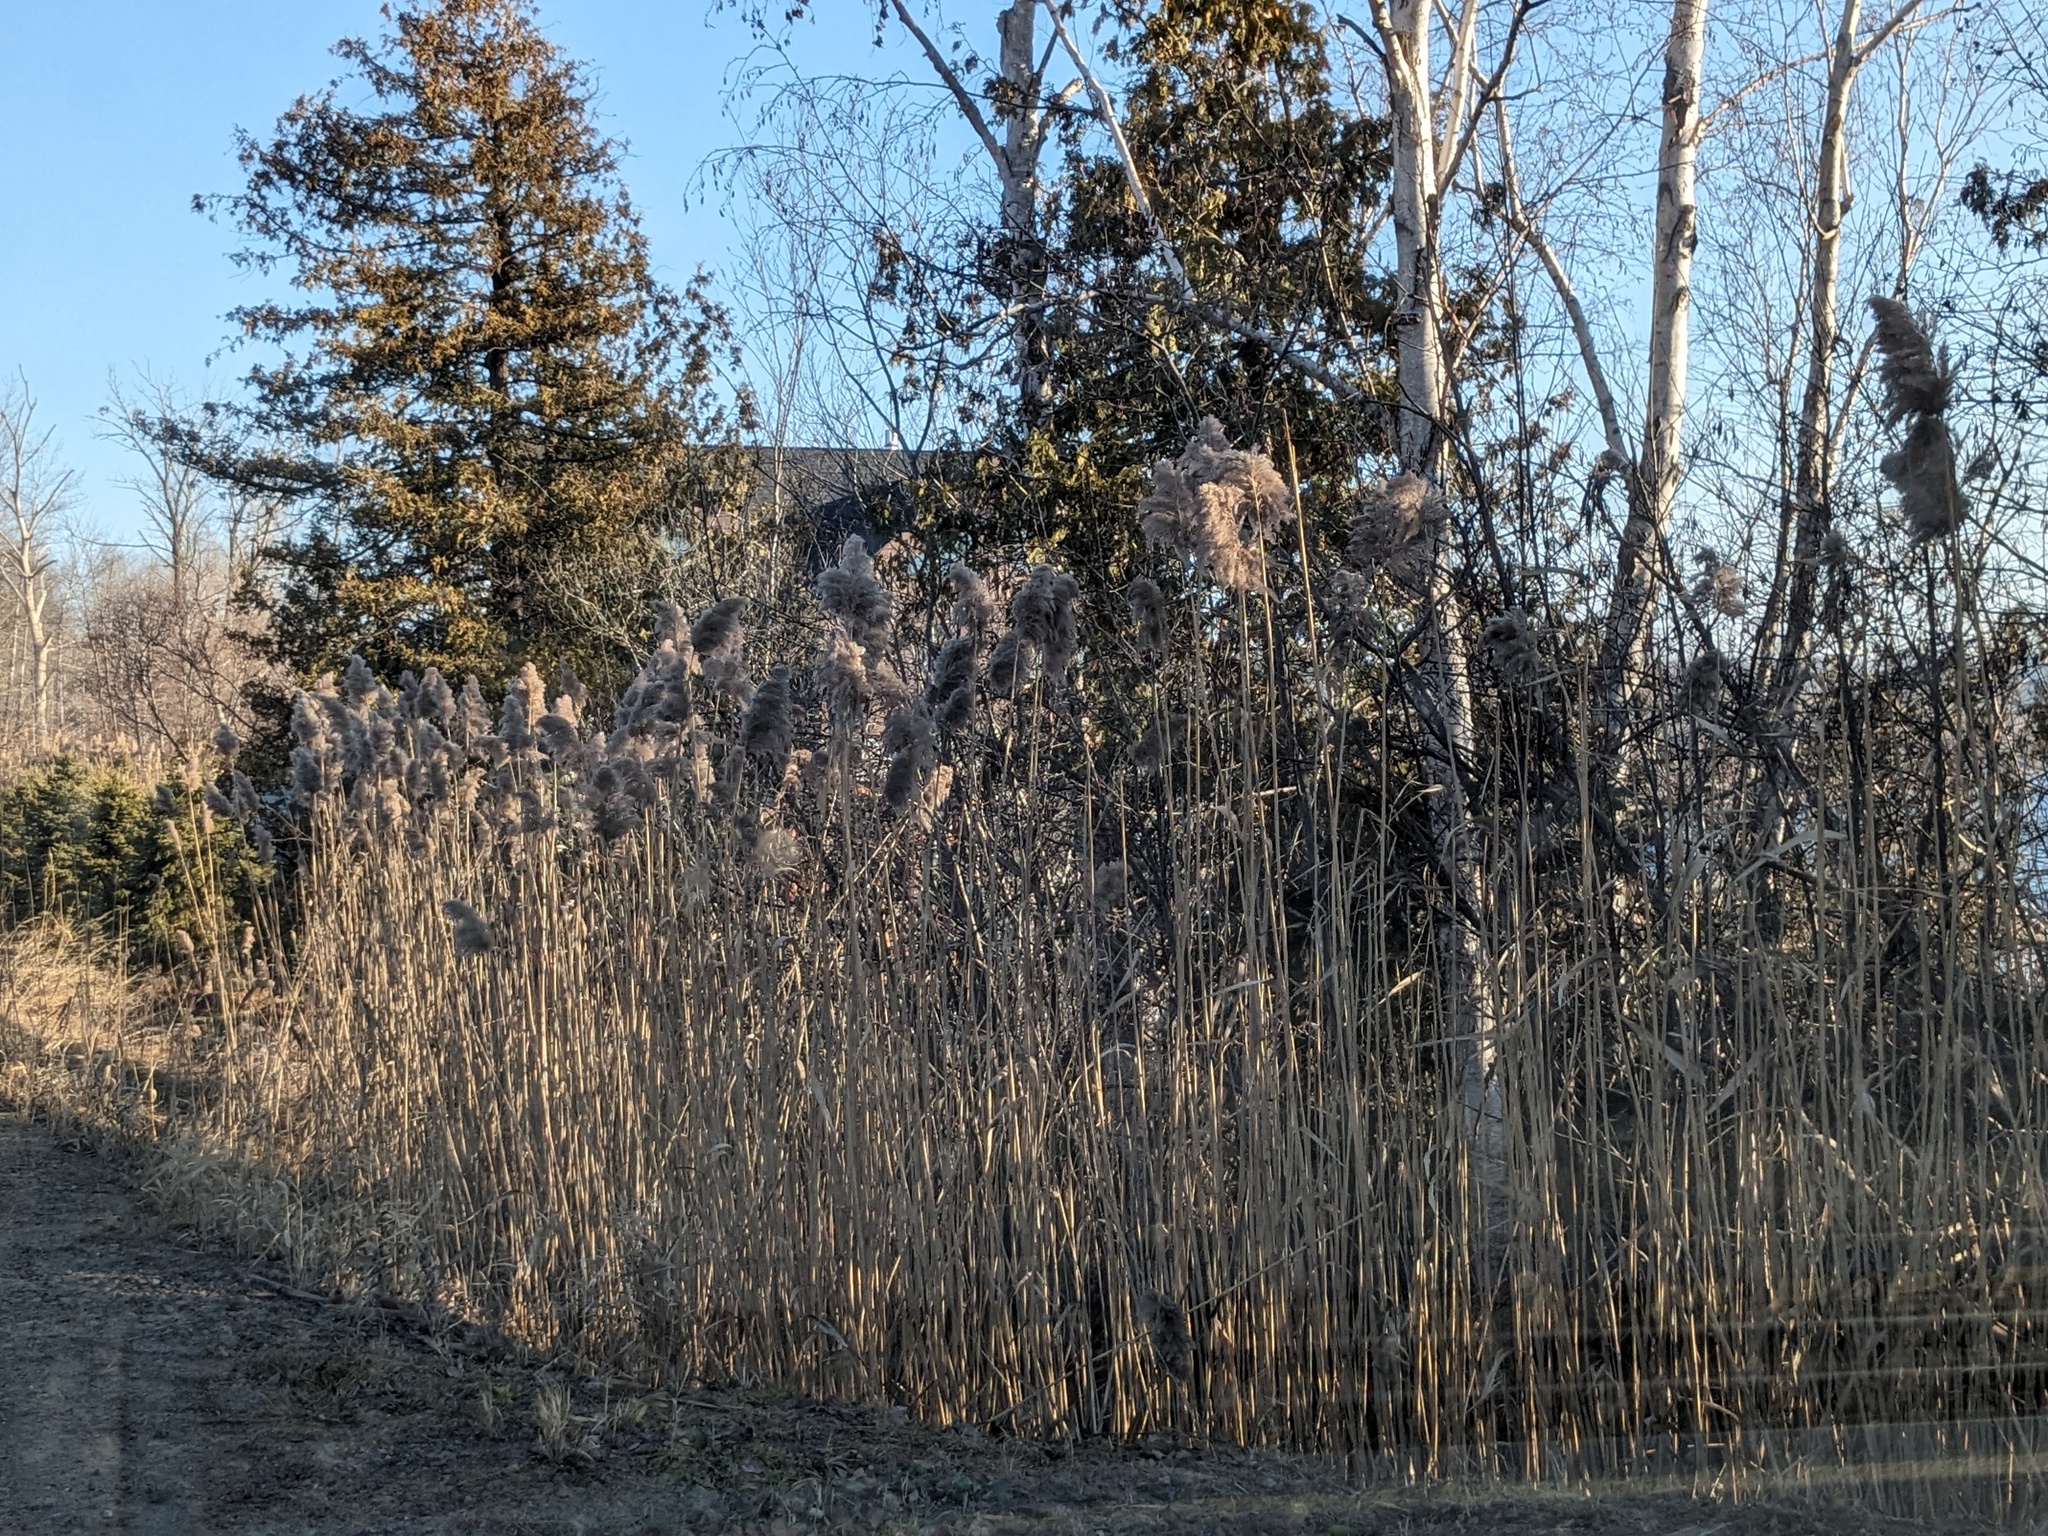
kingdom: Plantae
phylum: Tracheophyta
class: Liliopsida
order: Poales
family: Poaceae
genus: Phragmites
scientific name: Phragmites australis
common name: Common reed
